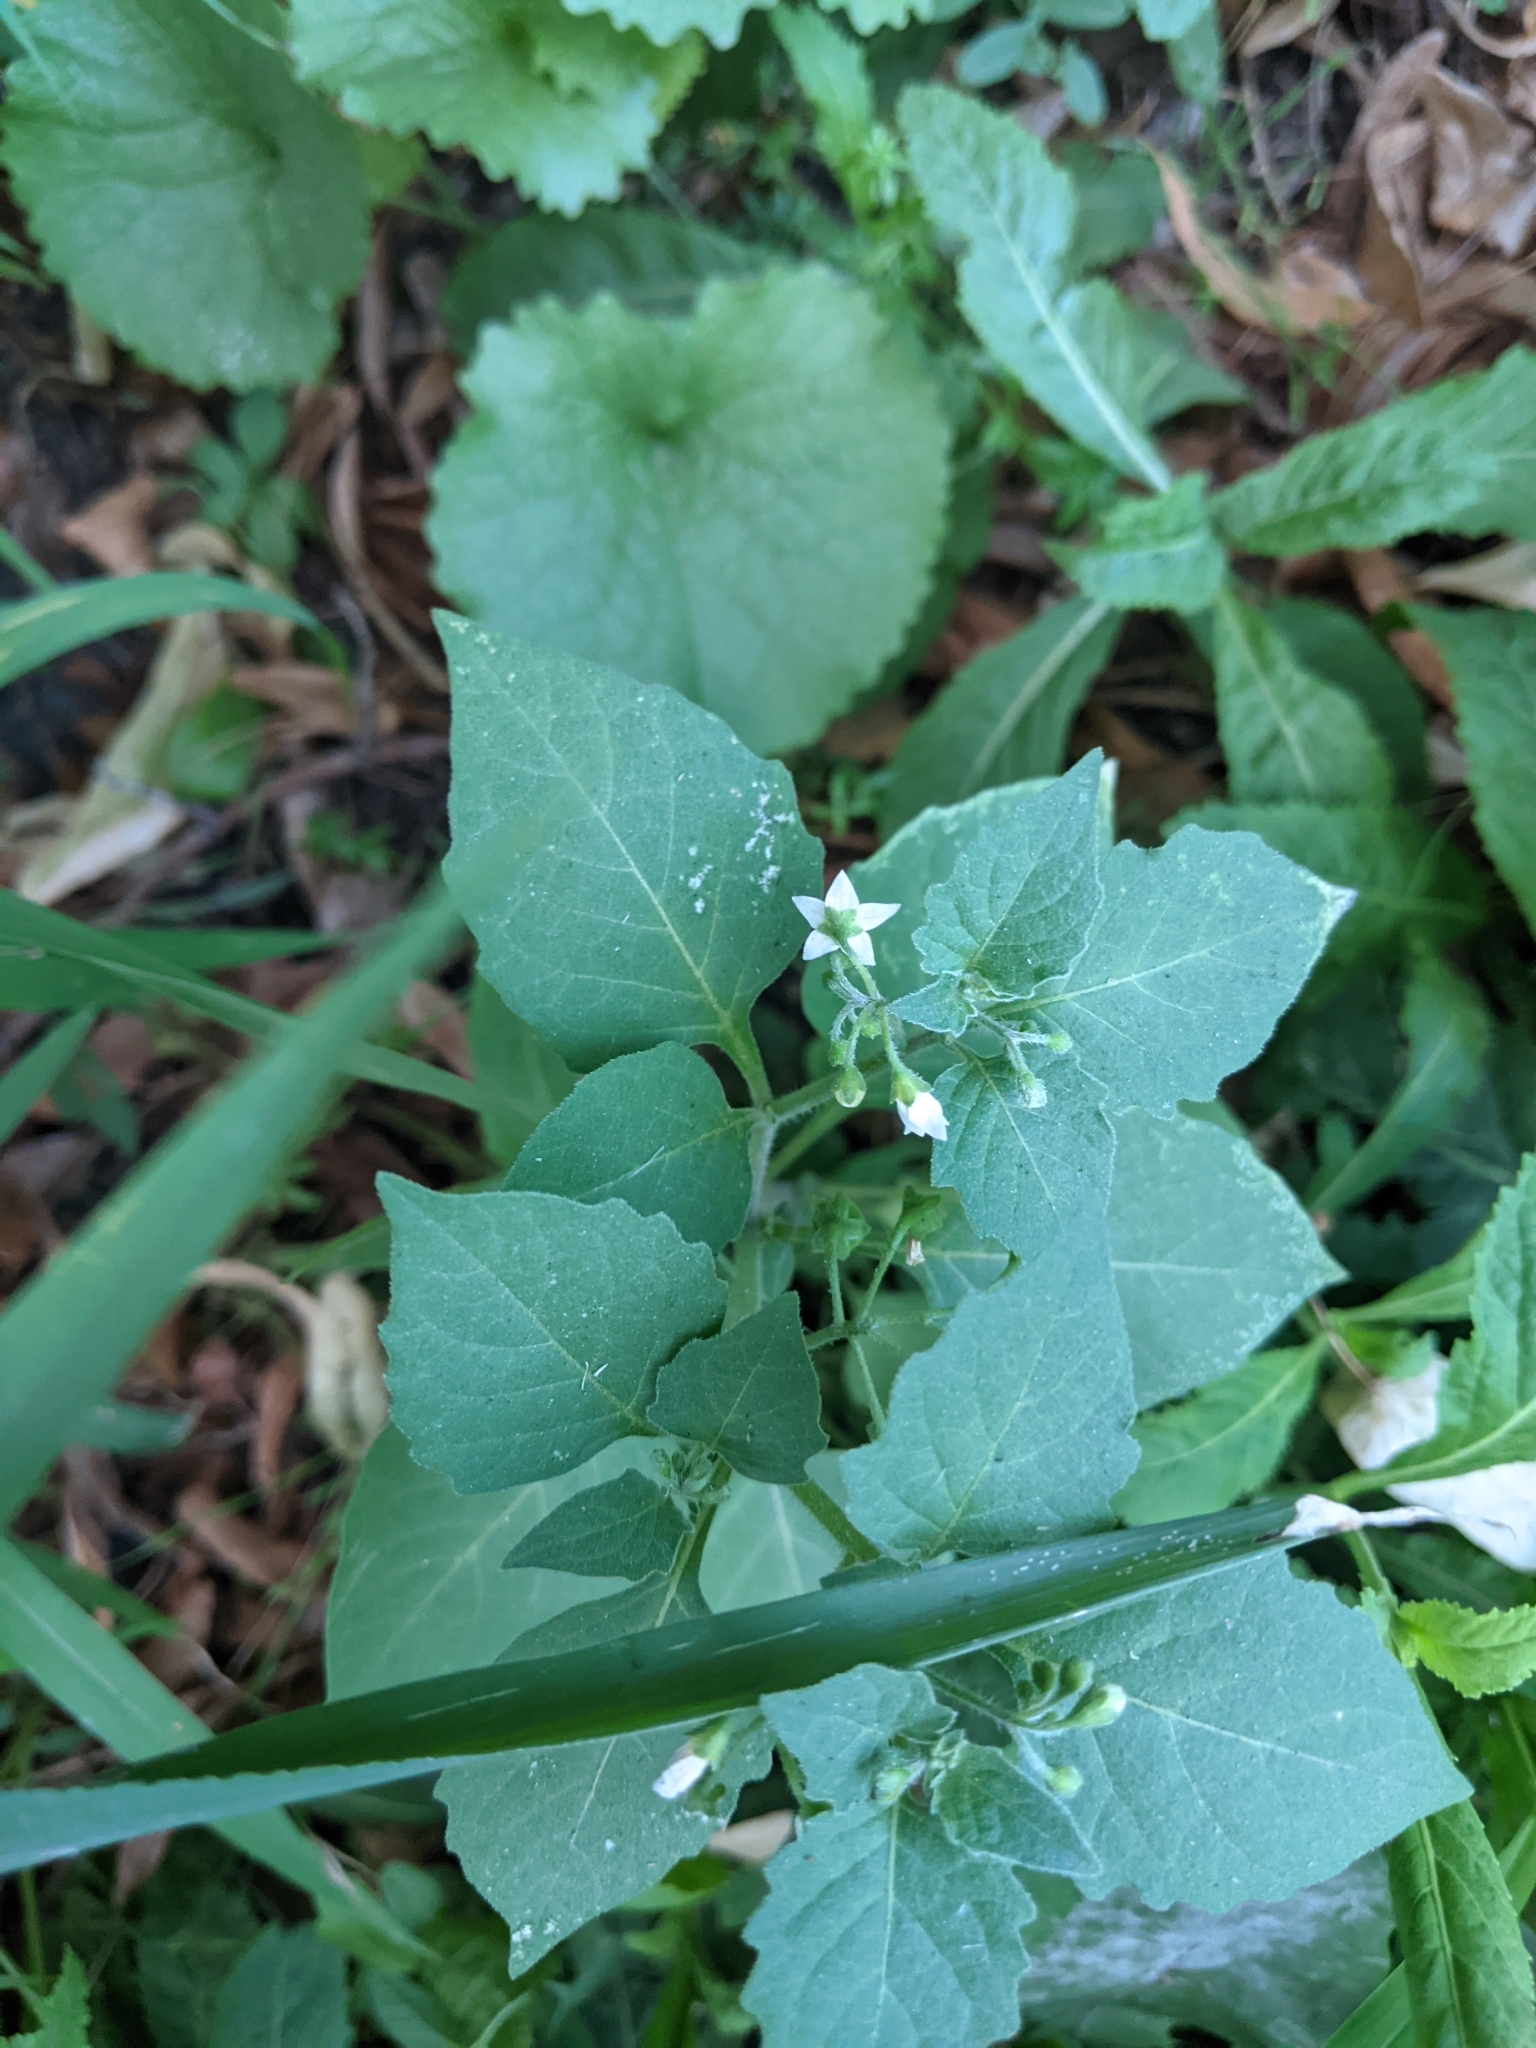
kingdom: Plantae
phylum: Tracheophyta
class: Magnoliopsida
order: Solanales
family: Solanaceae
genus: Solanum
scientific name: Solanum nigrum
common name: Black nightshade
